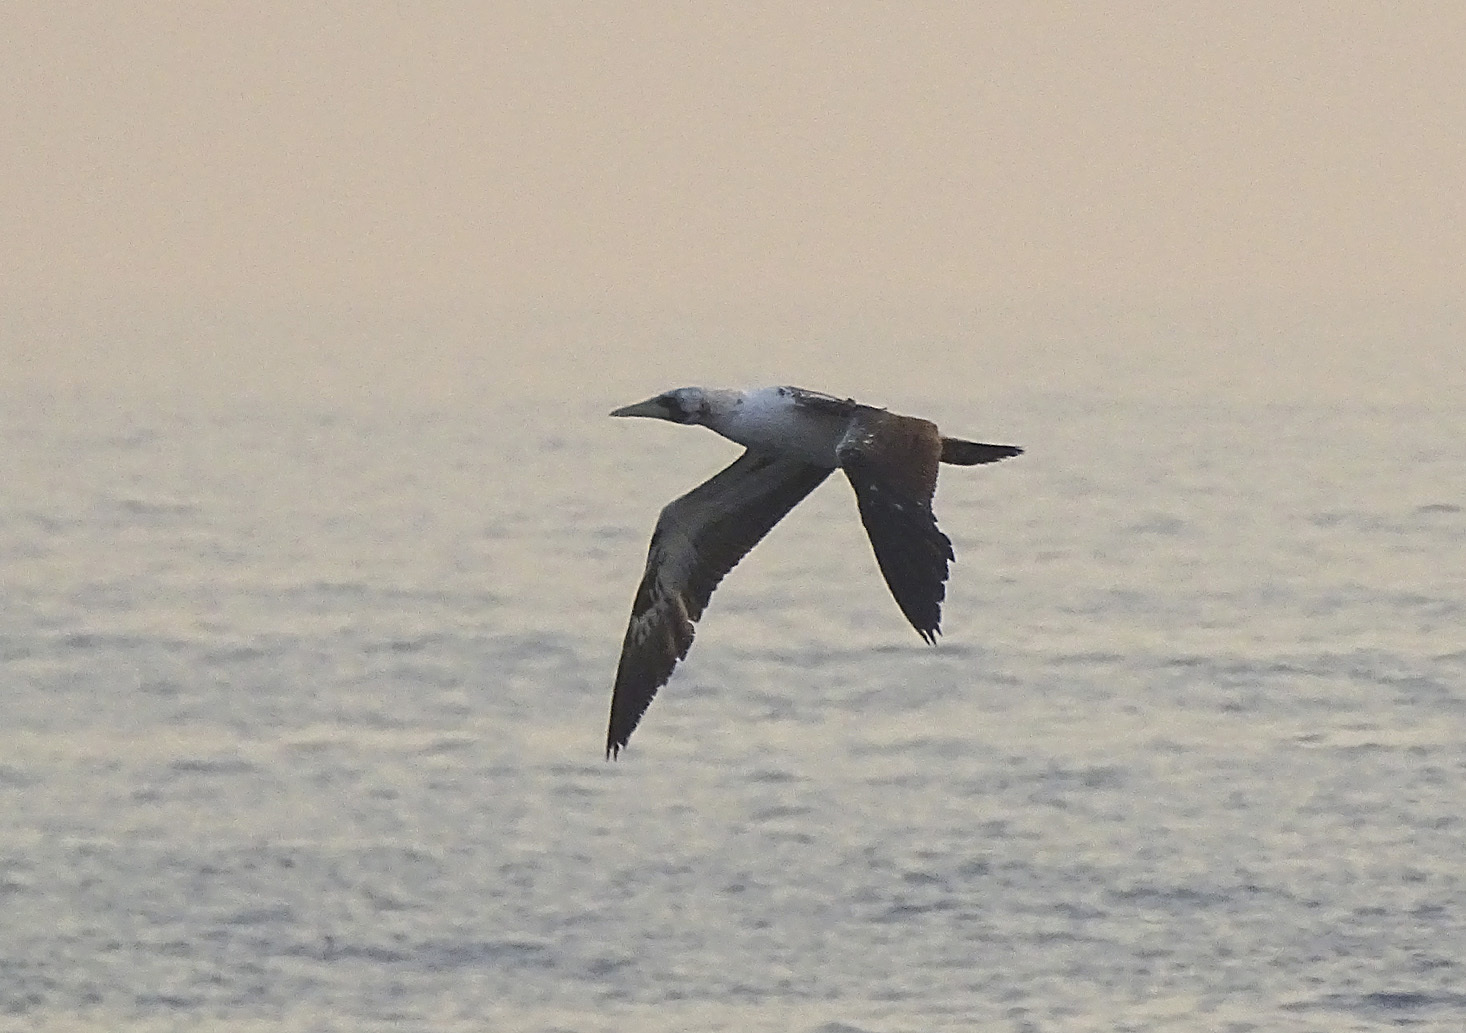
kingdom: Animalia
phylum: Chordata
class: Aves
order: Suliformes
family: Sulidae
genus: Sula
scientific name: Sula dactylatra
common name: Masked booby
